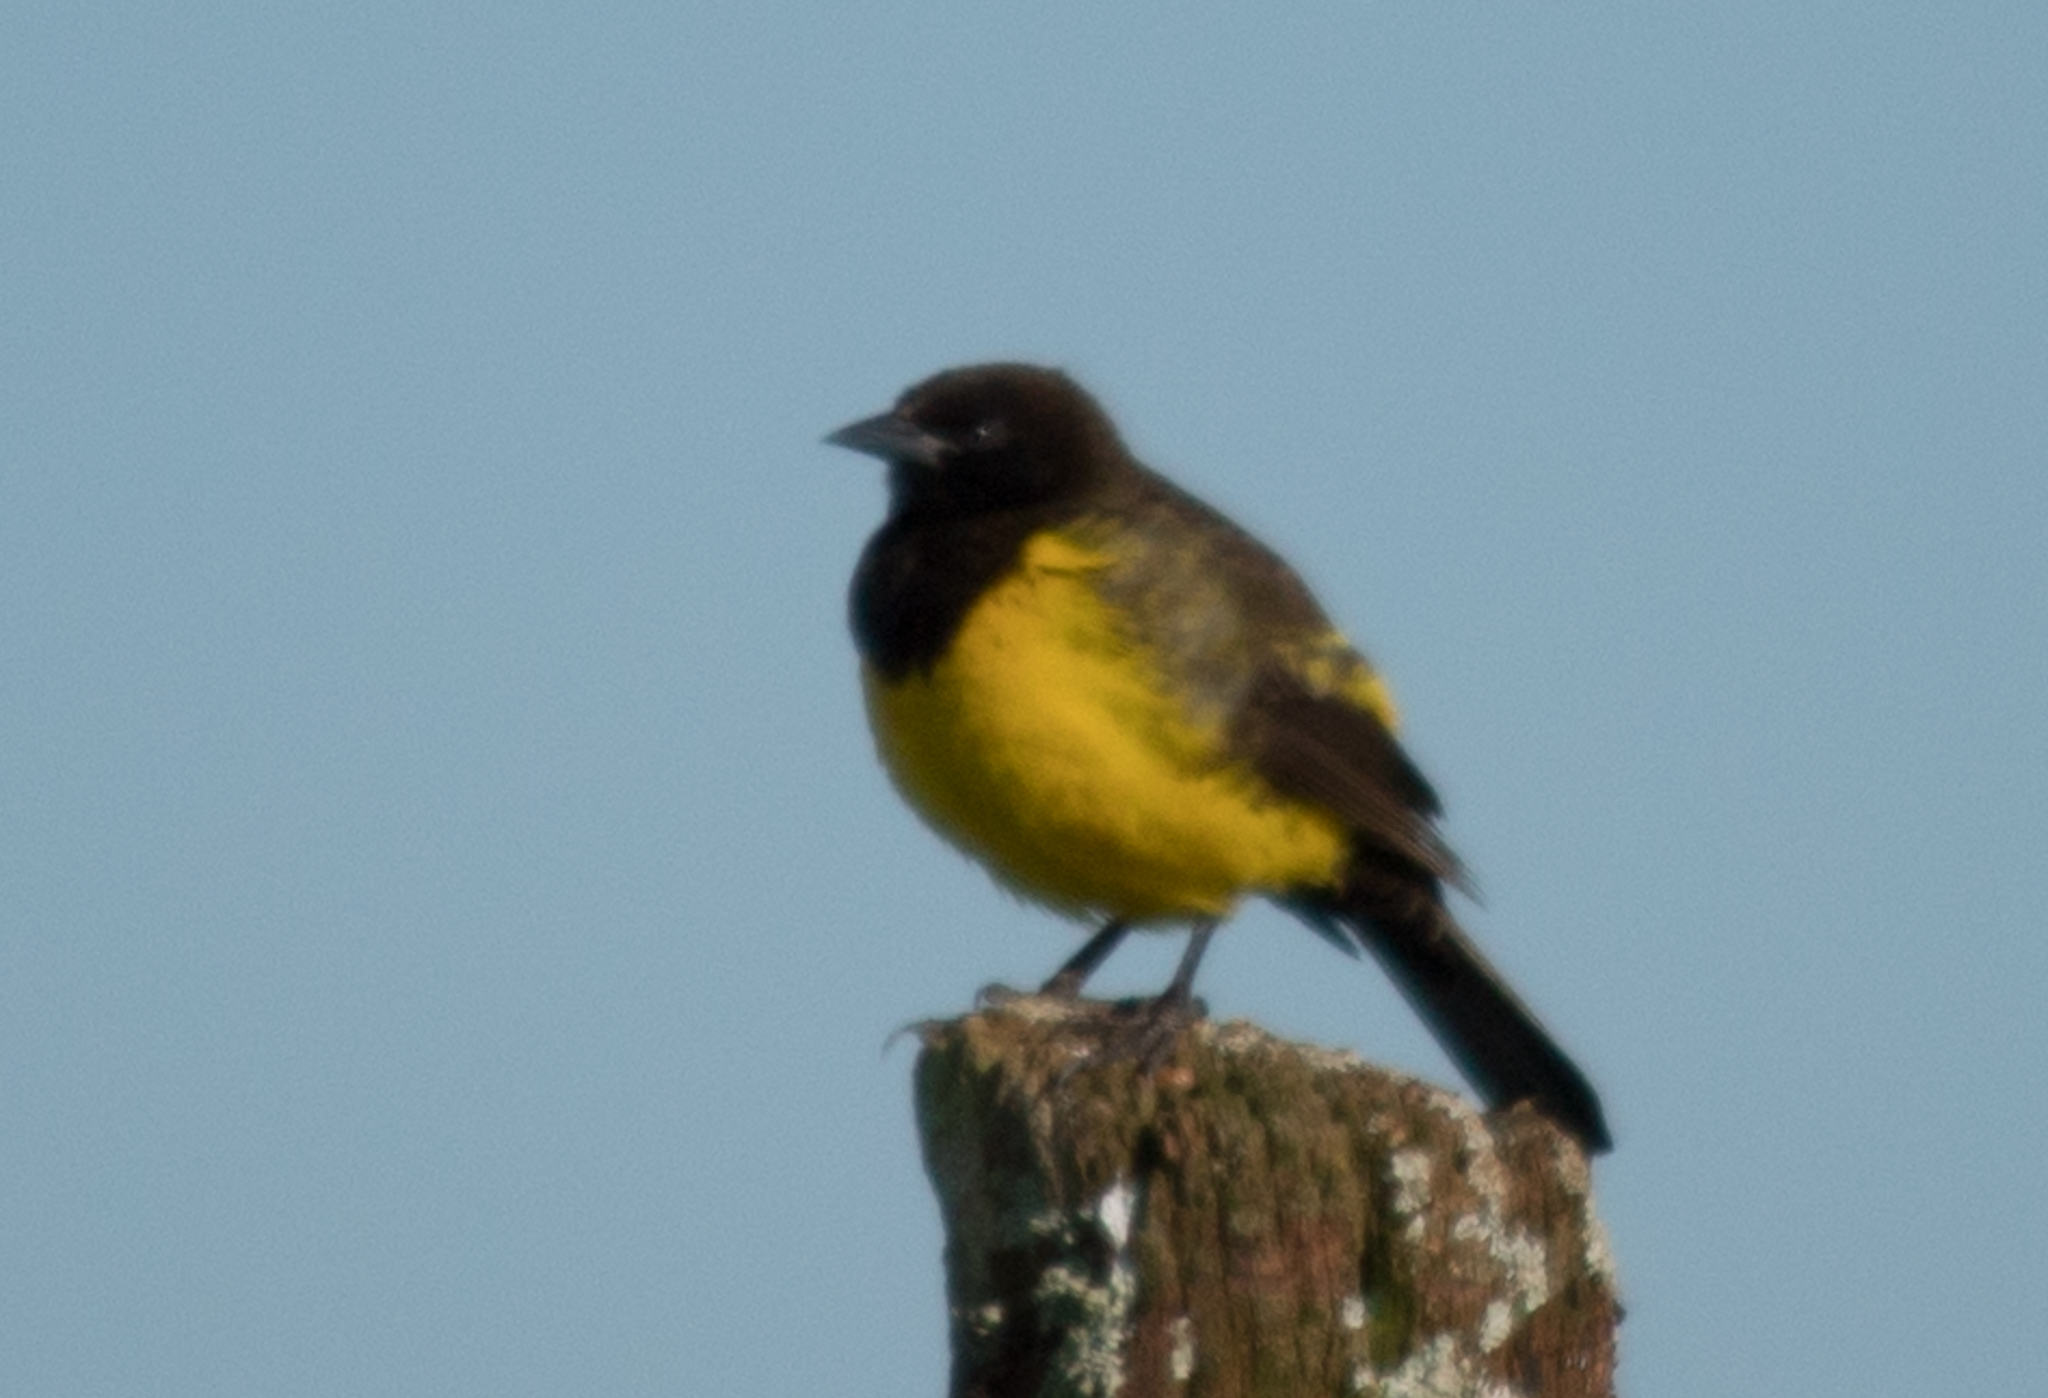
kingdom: Animalia
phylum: Chordata
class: Aves
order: Passeriformes
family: Icteridae
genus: Pseudoleistes
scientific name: Pseudoleistes guirahuro
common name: Yellow-rumped marshbird
